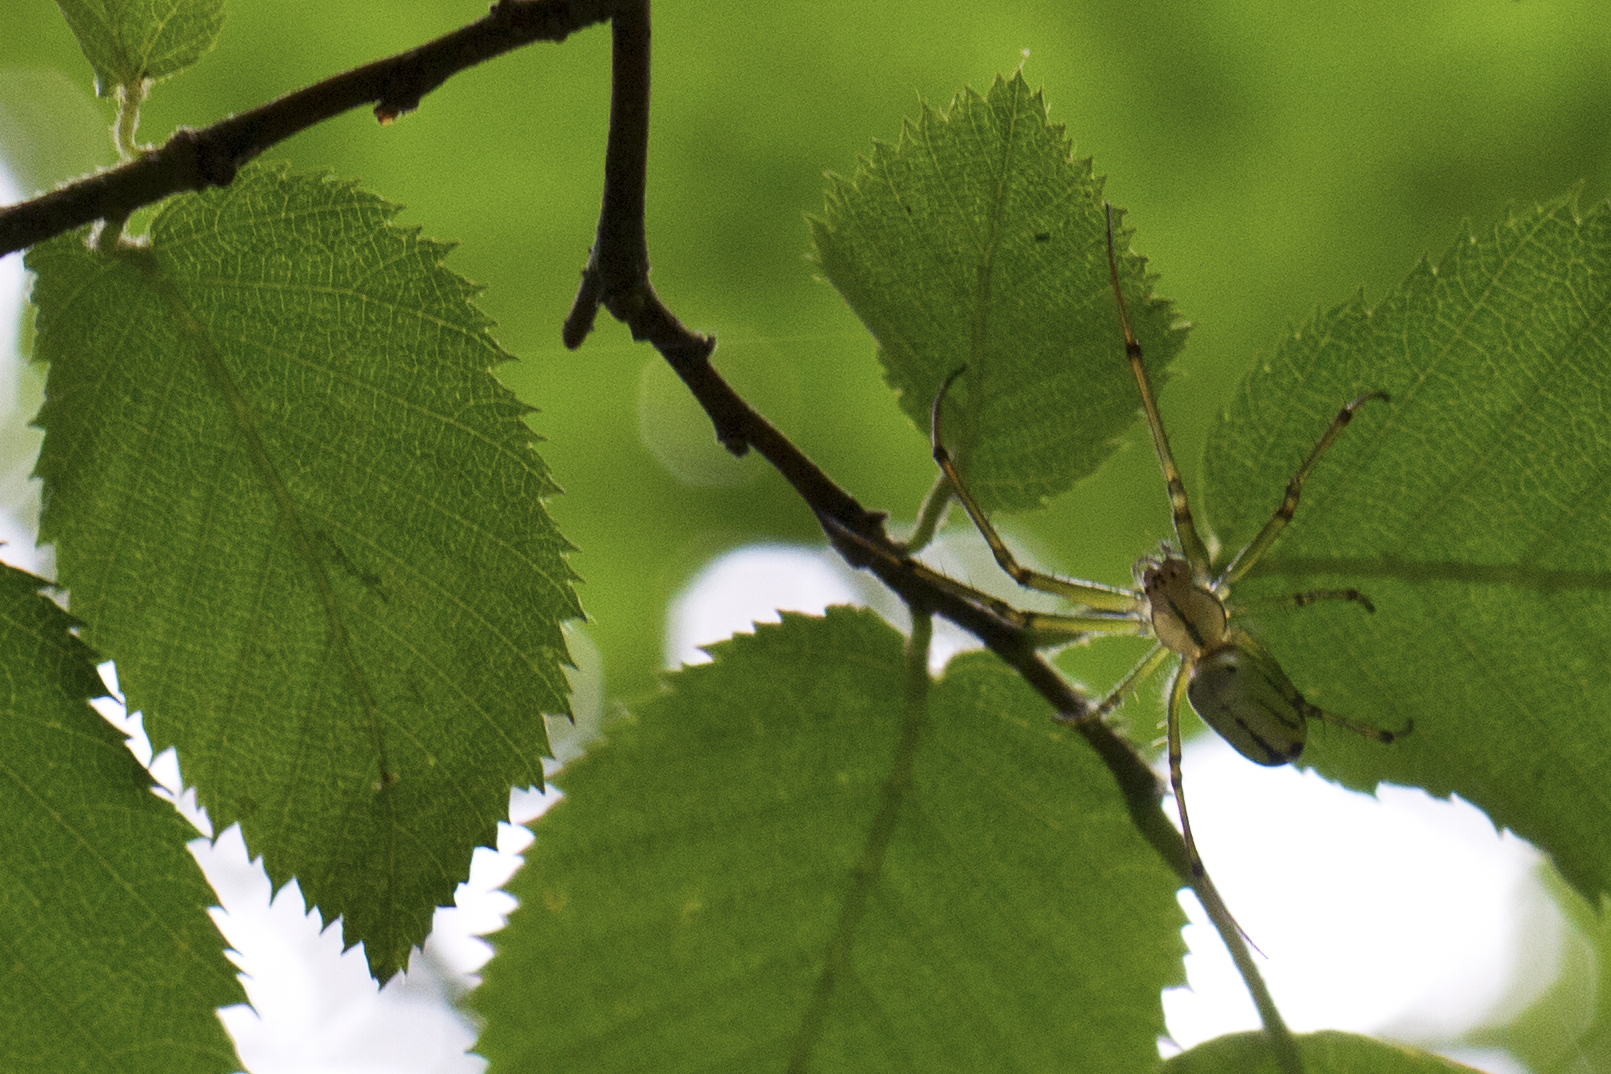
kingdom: Animalia
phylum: Arthropoda
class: Arachnida
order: Araneae
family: Tetragnathidae
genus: Leucauge
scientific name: Leucauge venusta
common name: Longjawed orb weavers
